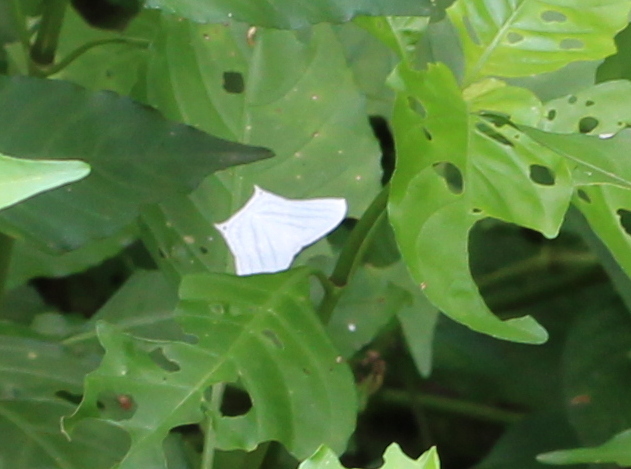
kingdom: Animalia
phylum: Arthropoda
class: Insecta
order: Lepidoptera
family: Uraniidae
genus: Micronia
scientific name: Micronia aculeata
